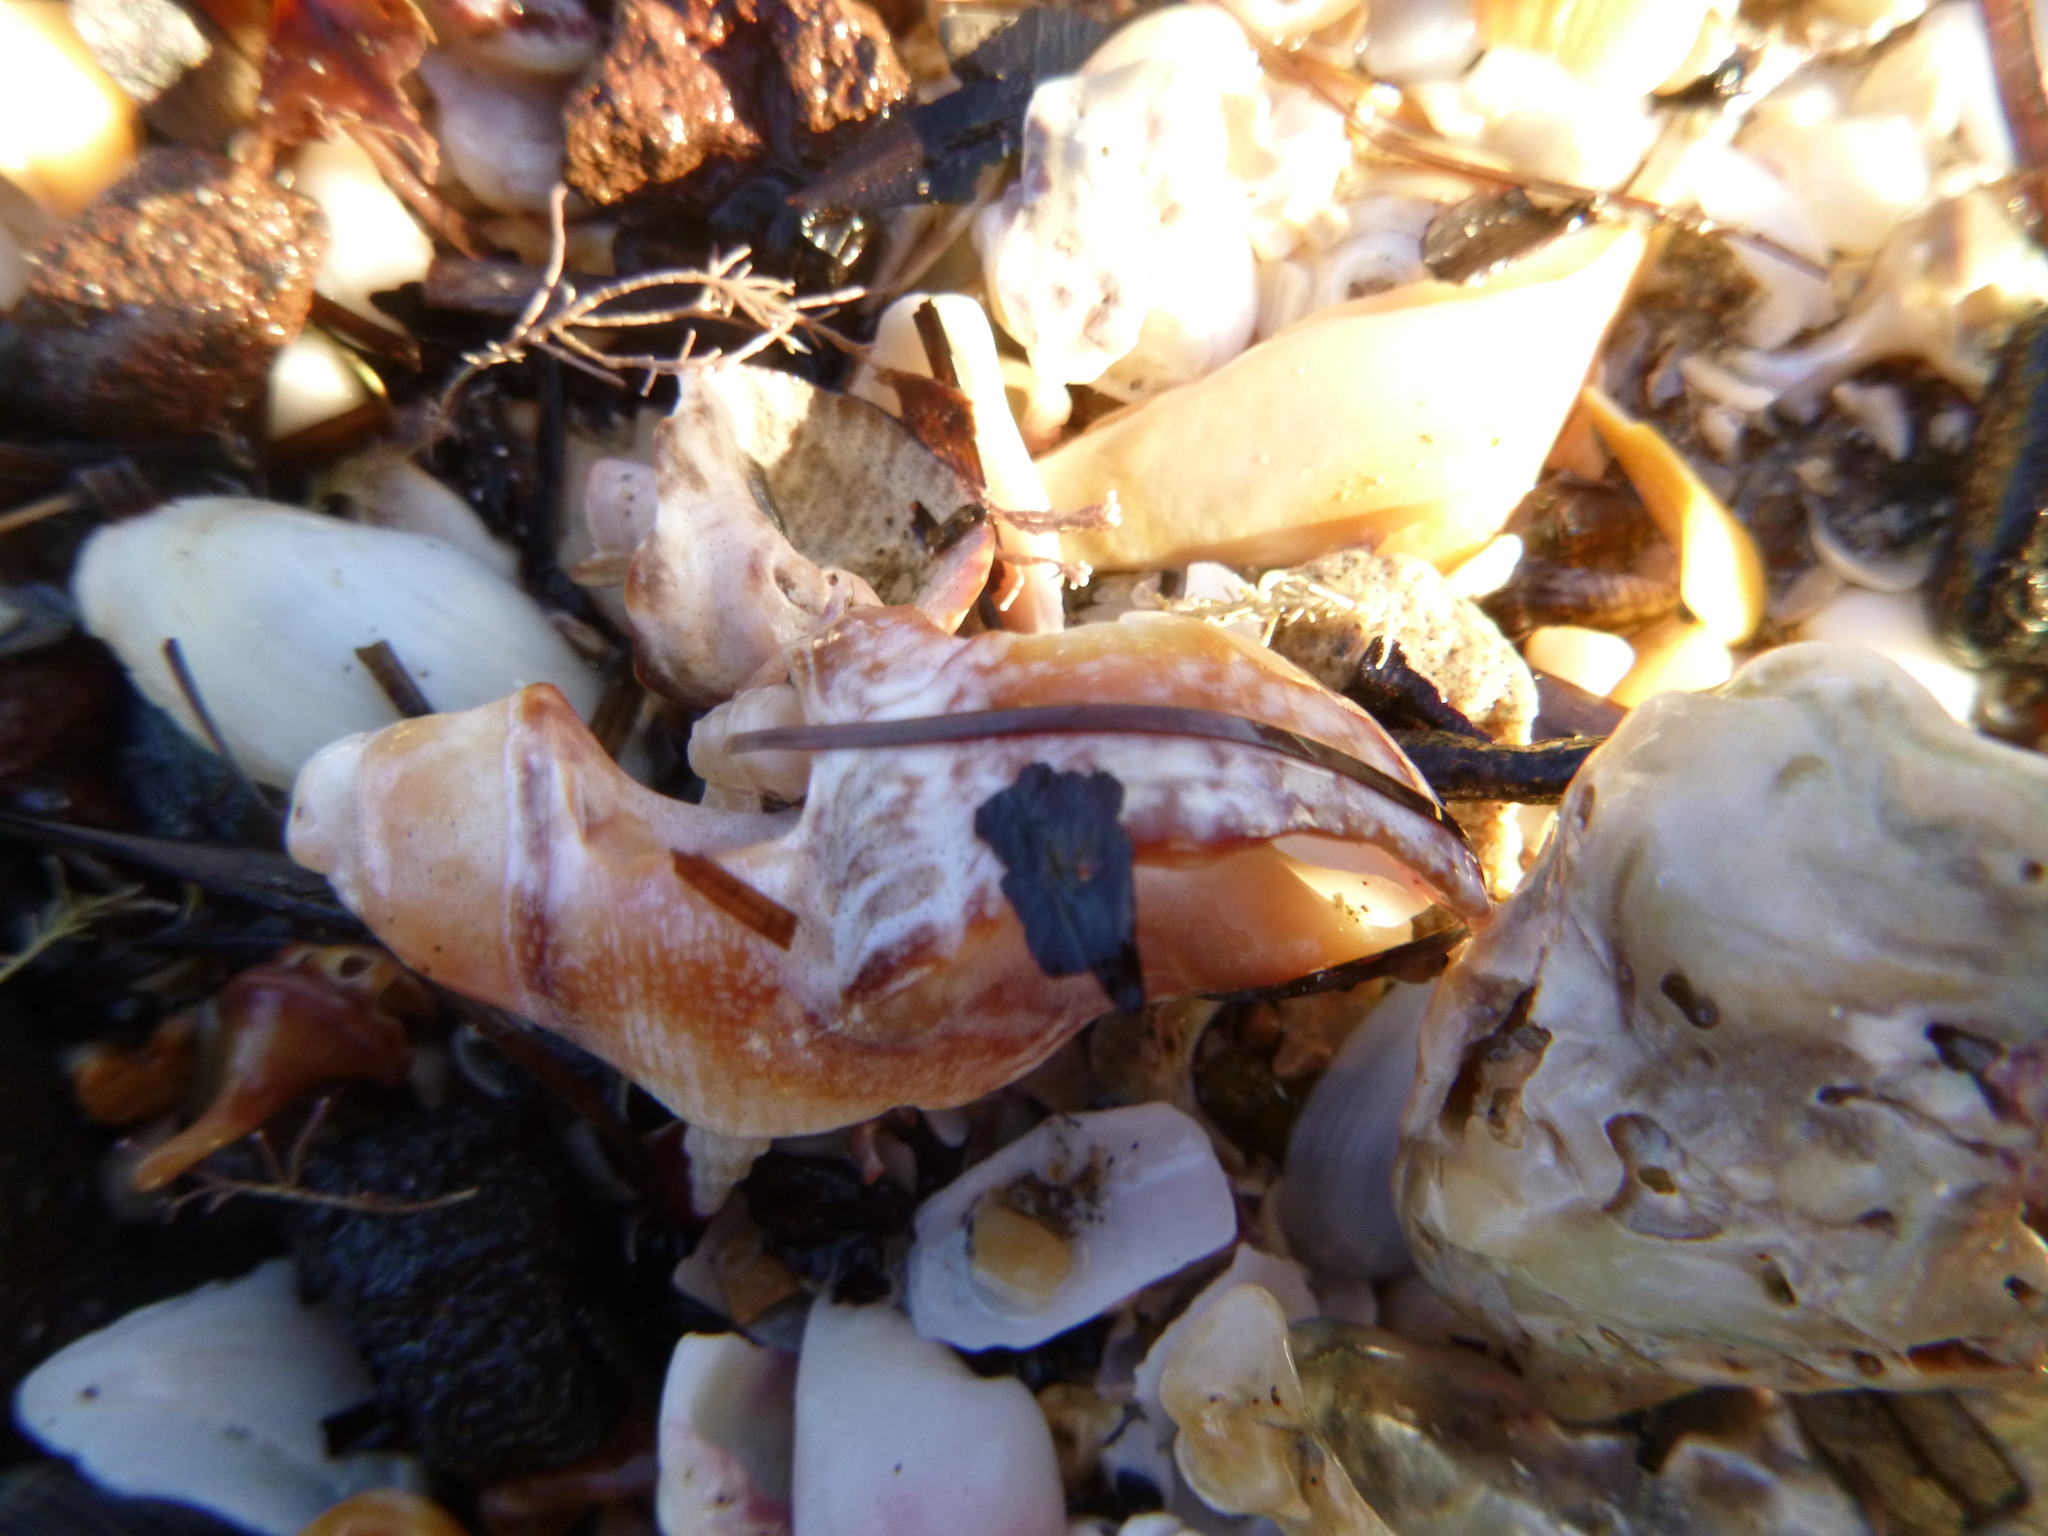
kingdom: Animalia
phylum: Mollusca
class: Gastropoda
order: Neogastropoda
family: Muricidae
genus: Haustrum
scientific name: Haustrum albomarginatum
